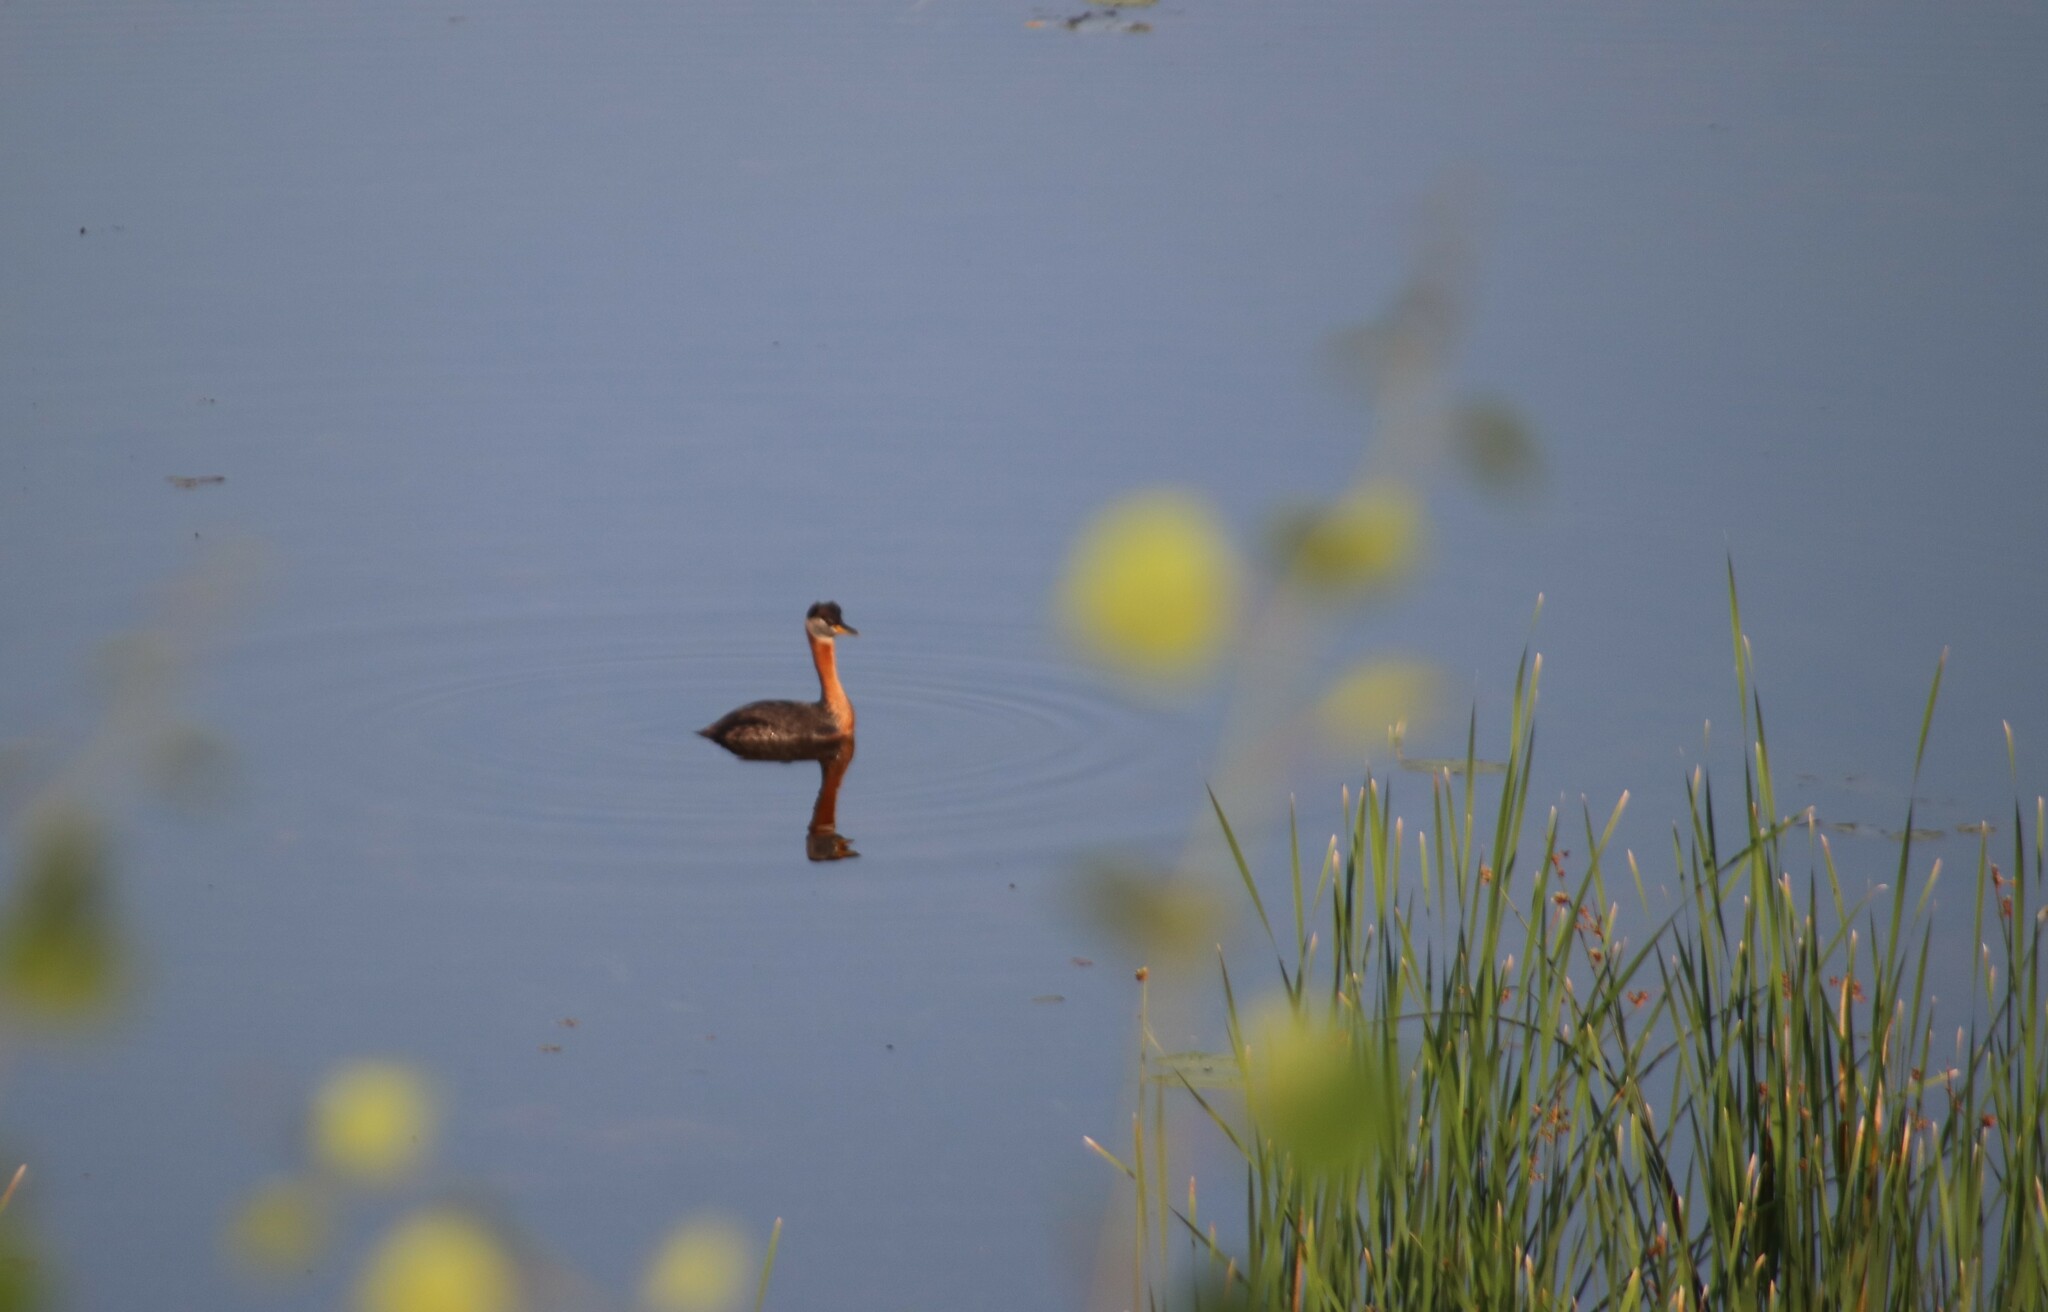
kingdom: Animalia
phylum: Chordata
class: Aves
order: Podicipediformes
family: Podicipedidae
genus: Podiceps
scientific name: Podiceps grisegena
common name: Red-necked grebe
